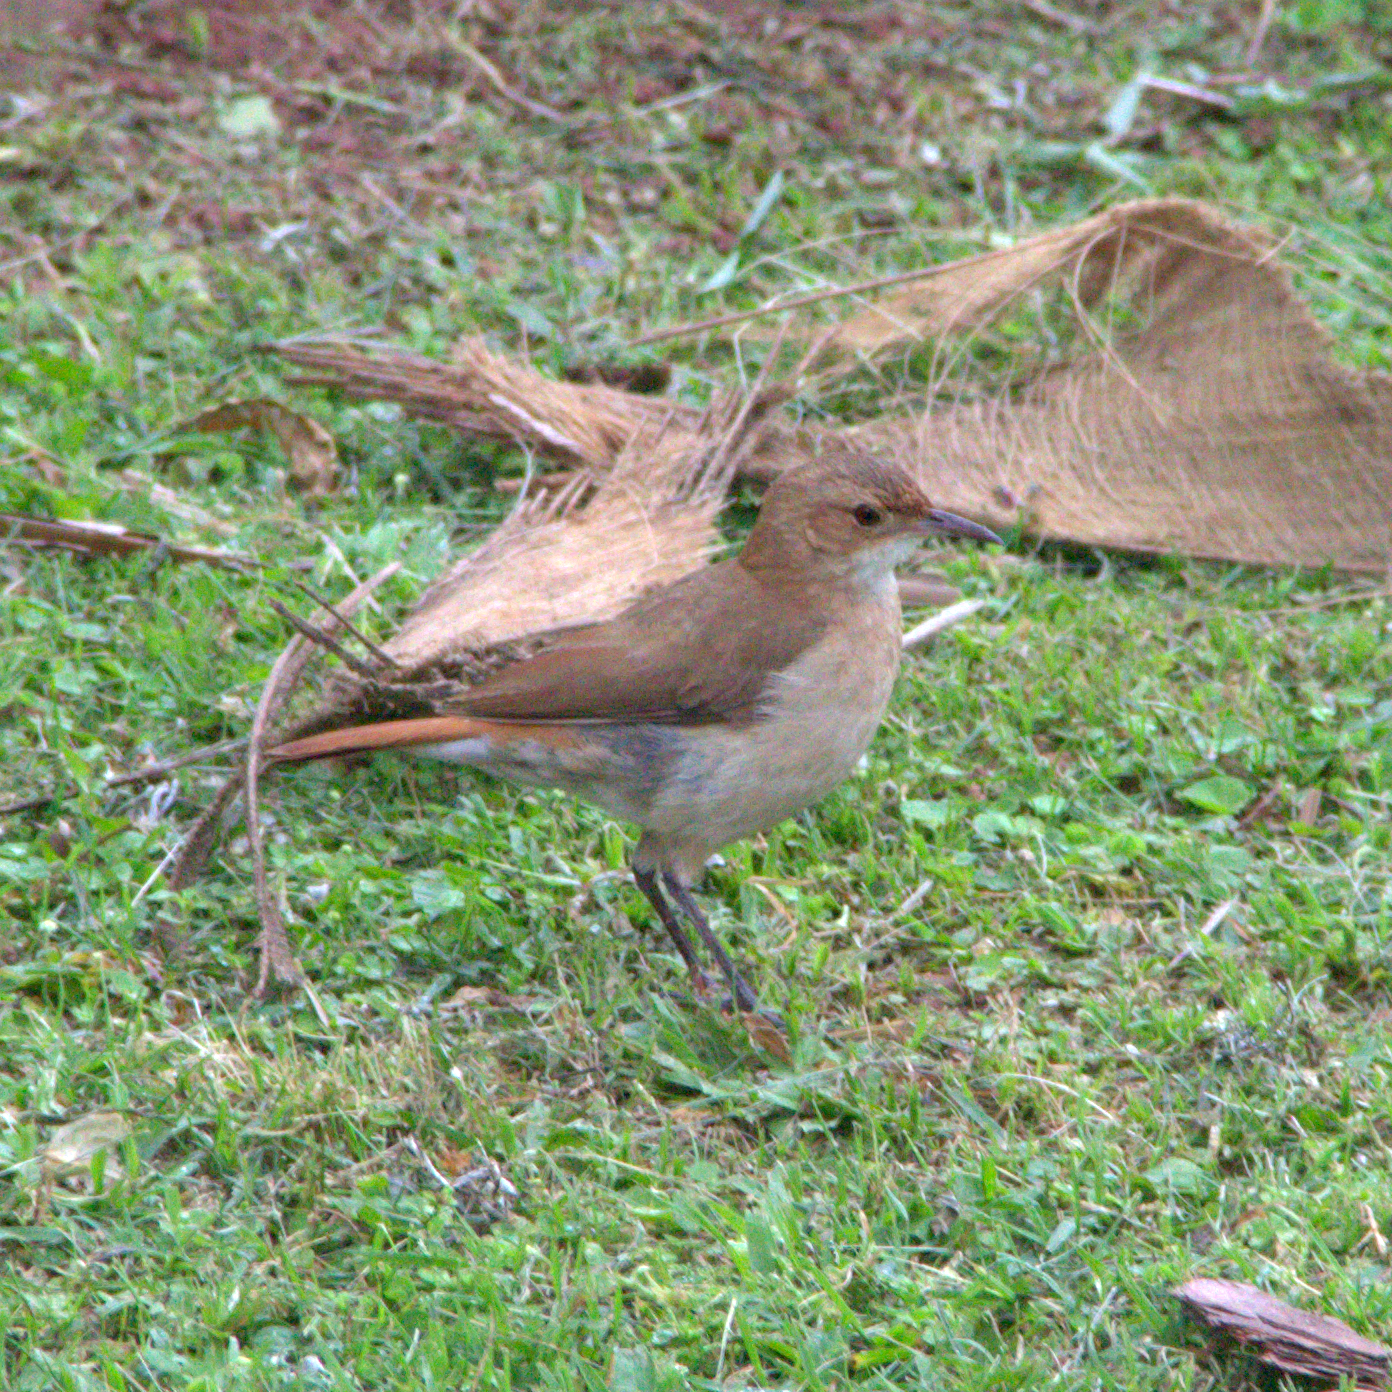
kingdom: Animalia
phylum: Chordata
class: Aves
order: Passeriformes
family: Furnariidae
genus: Furnarius
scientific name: Furnarius rufus
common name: Rufous hornero
